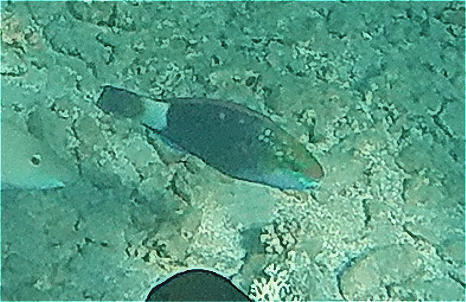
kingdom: Animalia
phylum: Chordata
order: Perciformes
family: Scaridae
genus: Chlorurus
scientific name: Chlorurus sordidus
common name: Bullethead parrotfish
